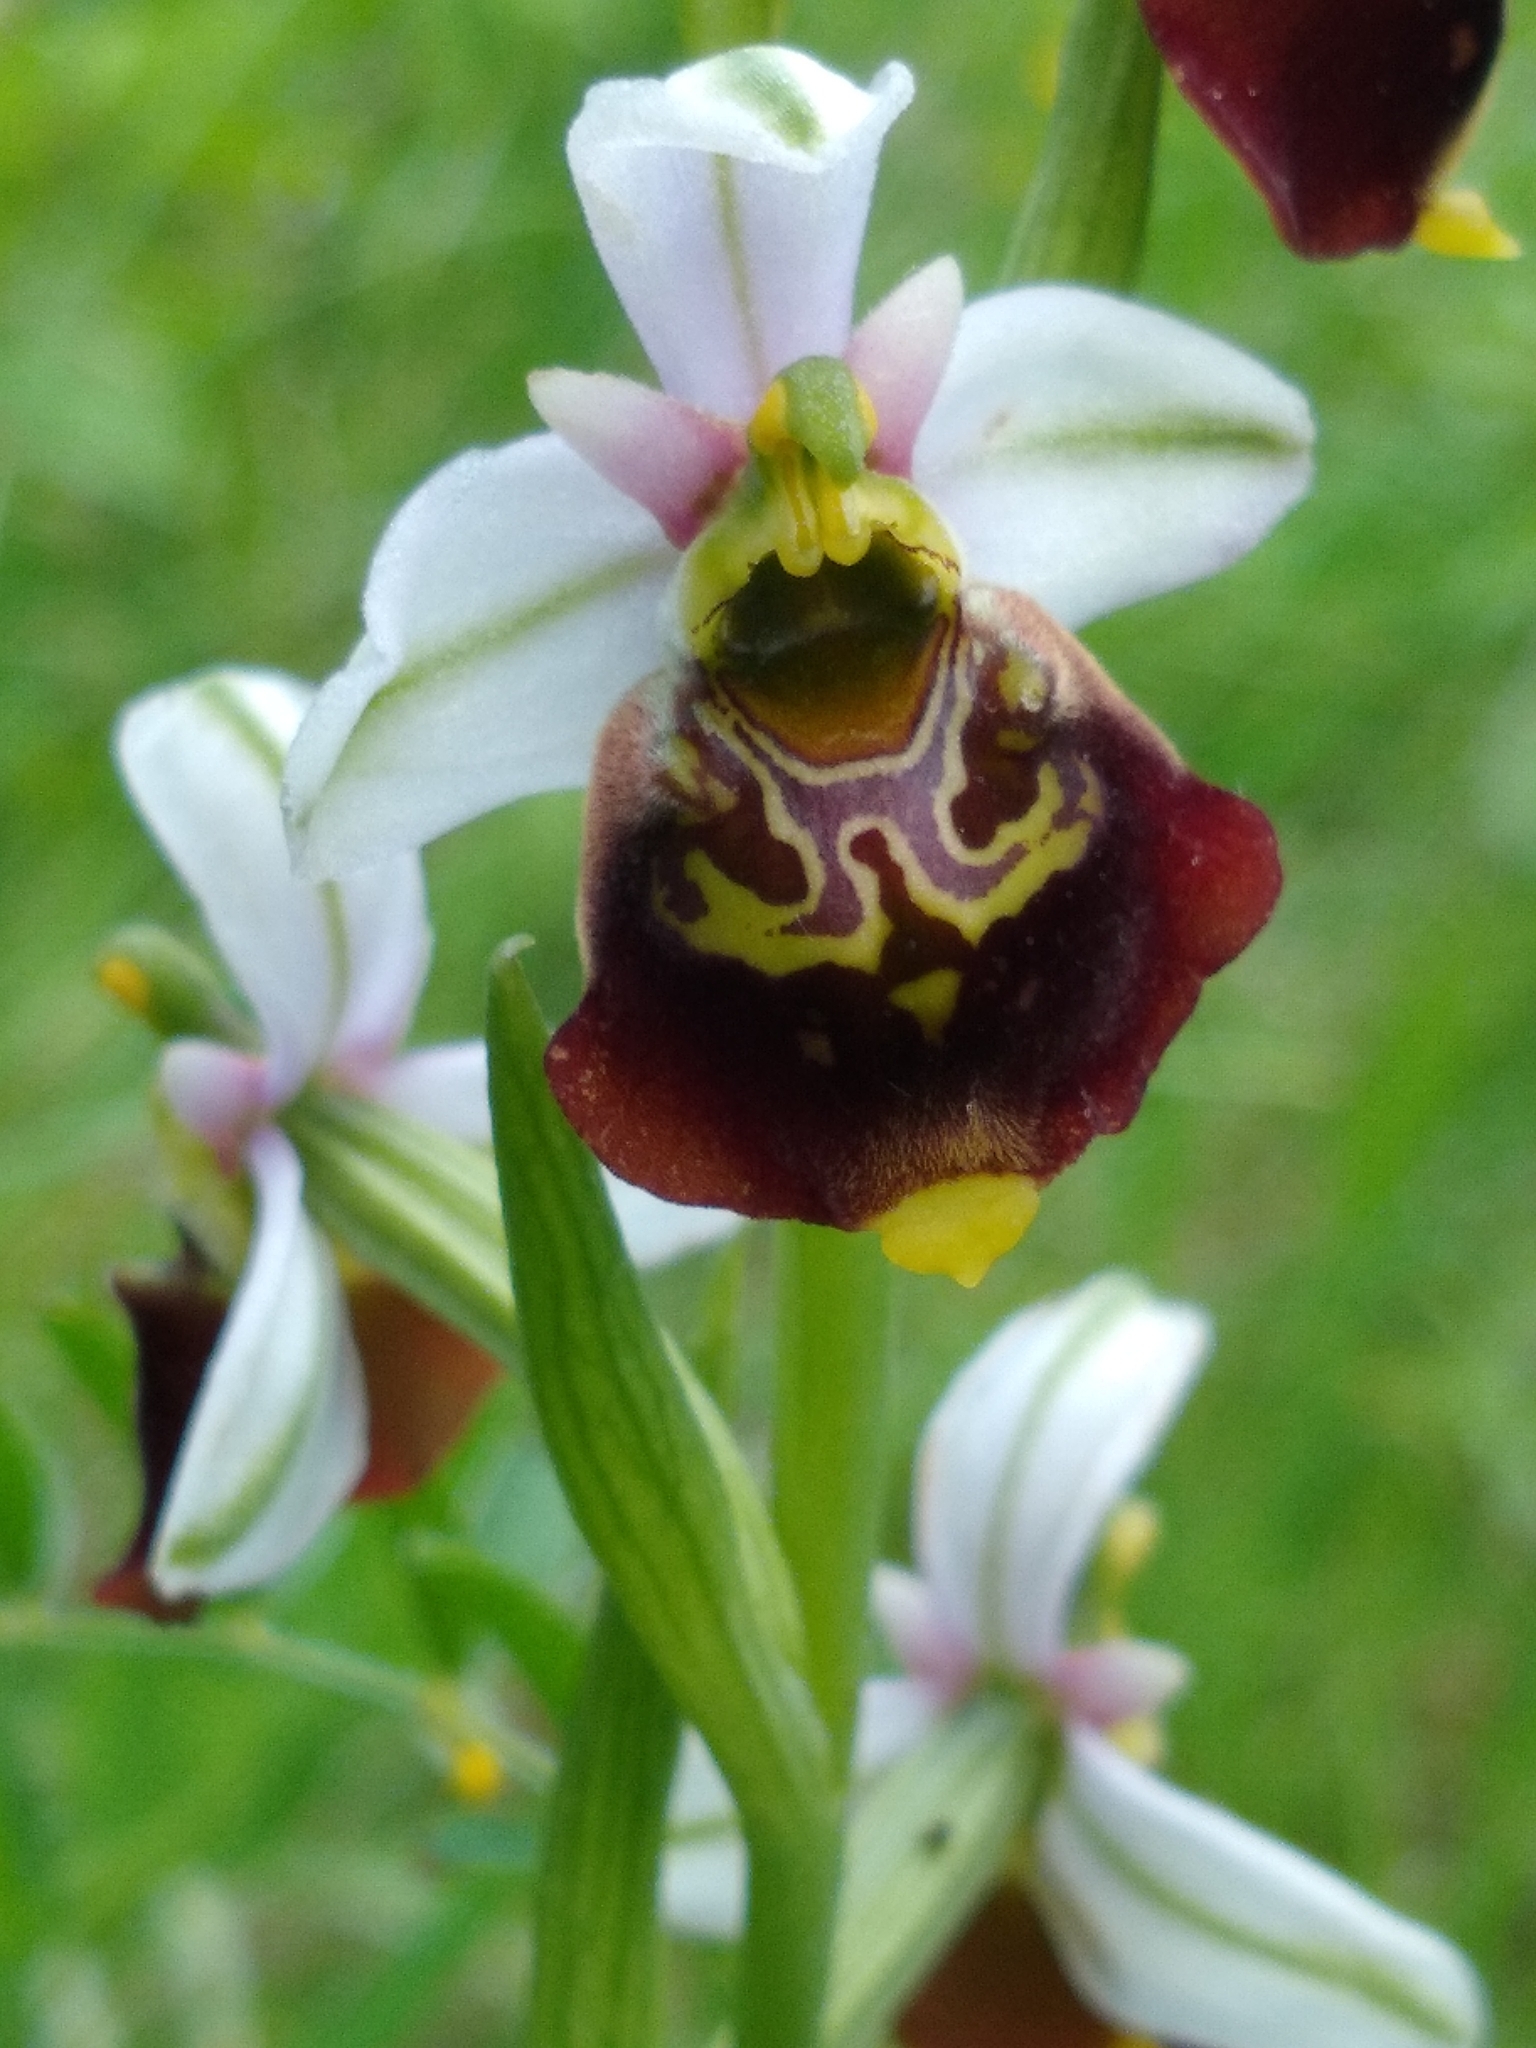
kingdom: Plantae
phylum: Tracheophyta
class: Liliopsida
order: Asparagales
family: Orchidaceae
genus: Ophrys
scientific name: Ophrys holosericea
